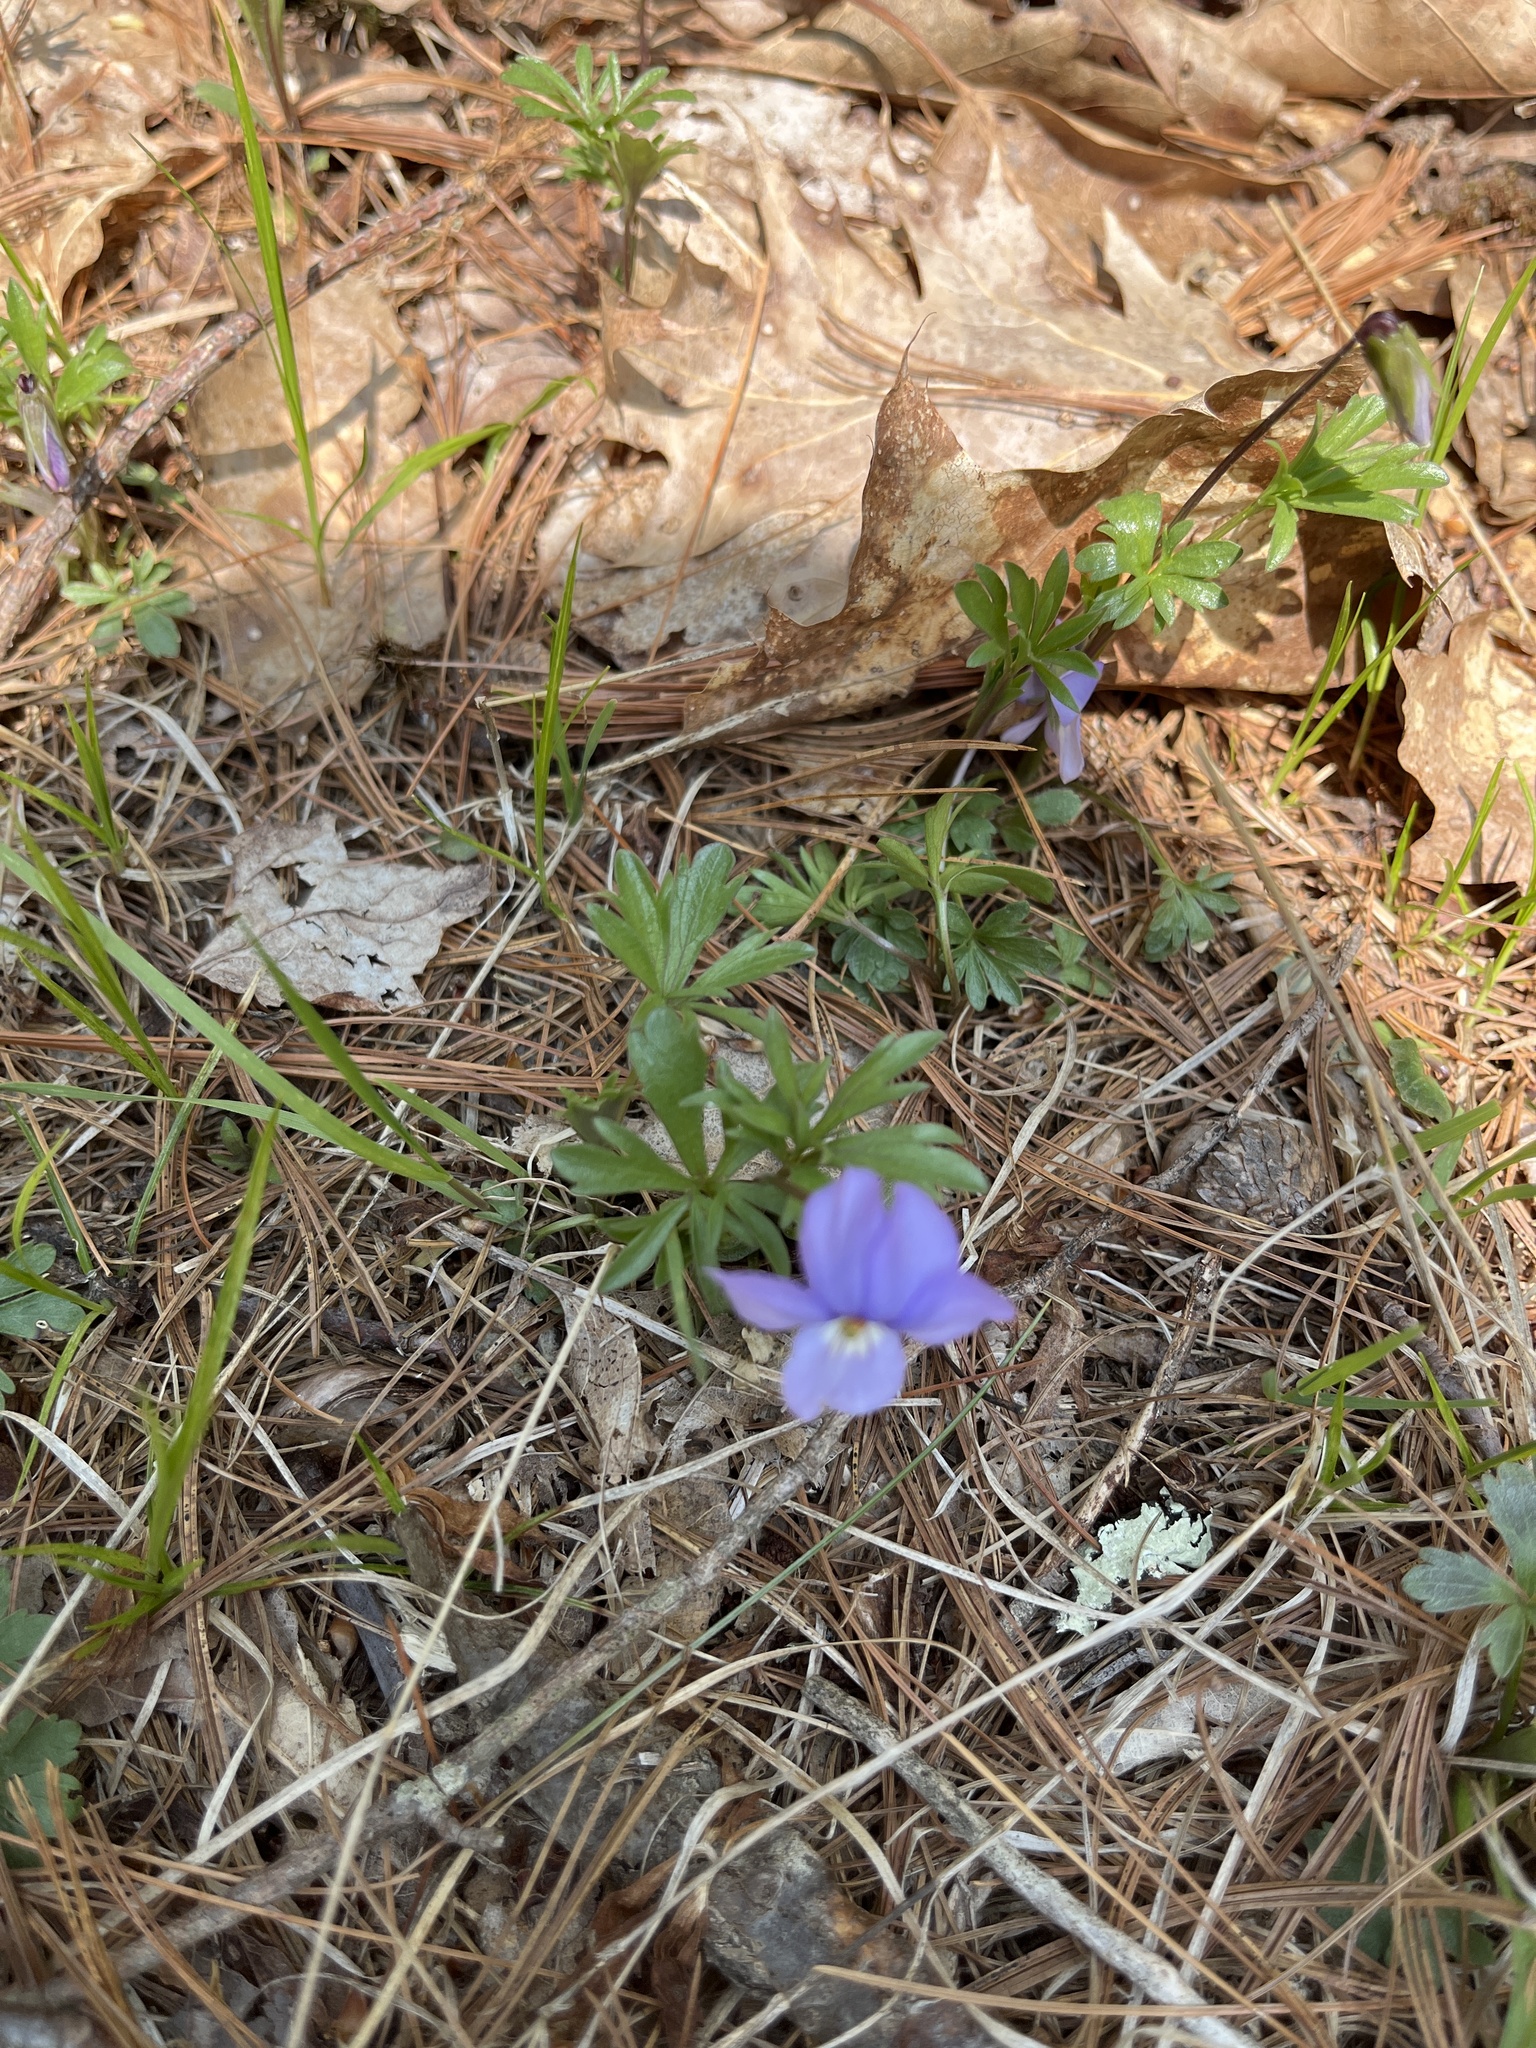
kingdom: Plantae
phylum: Tracheophyta
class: Magnoliopsida
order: Malpighiales
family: Violaceae
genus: Viola
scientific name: Viola pedata
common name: Pansy violet
